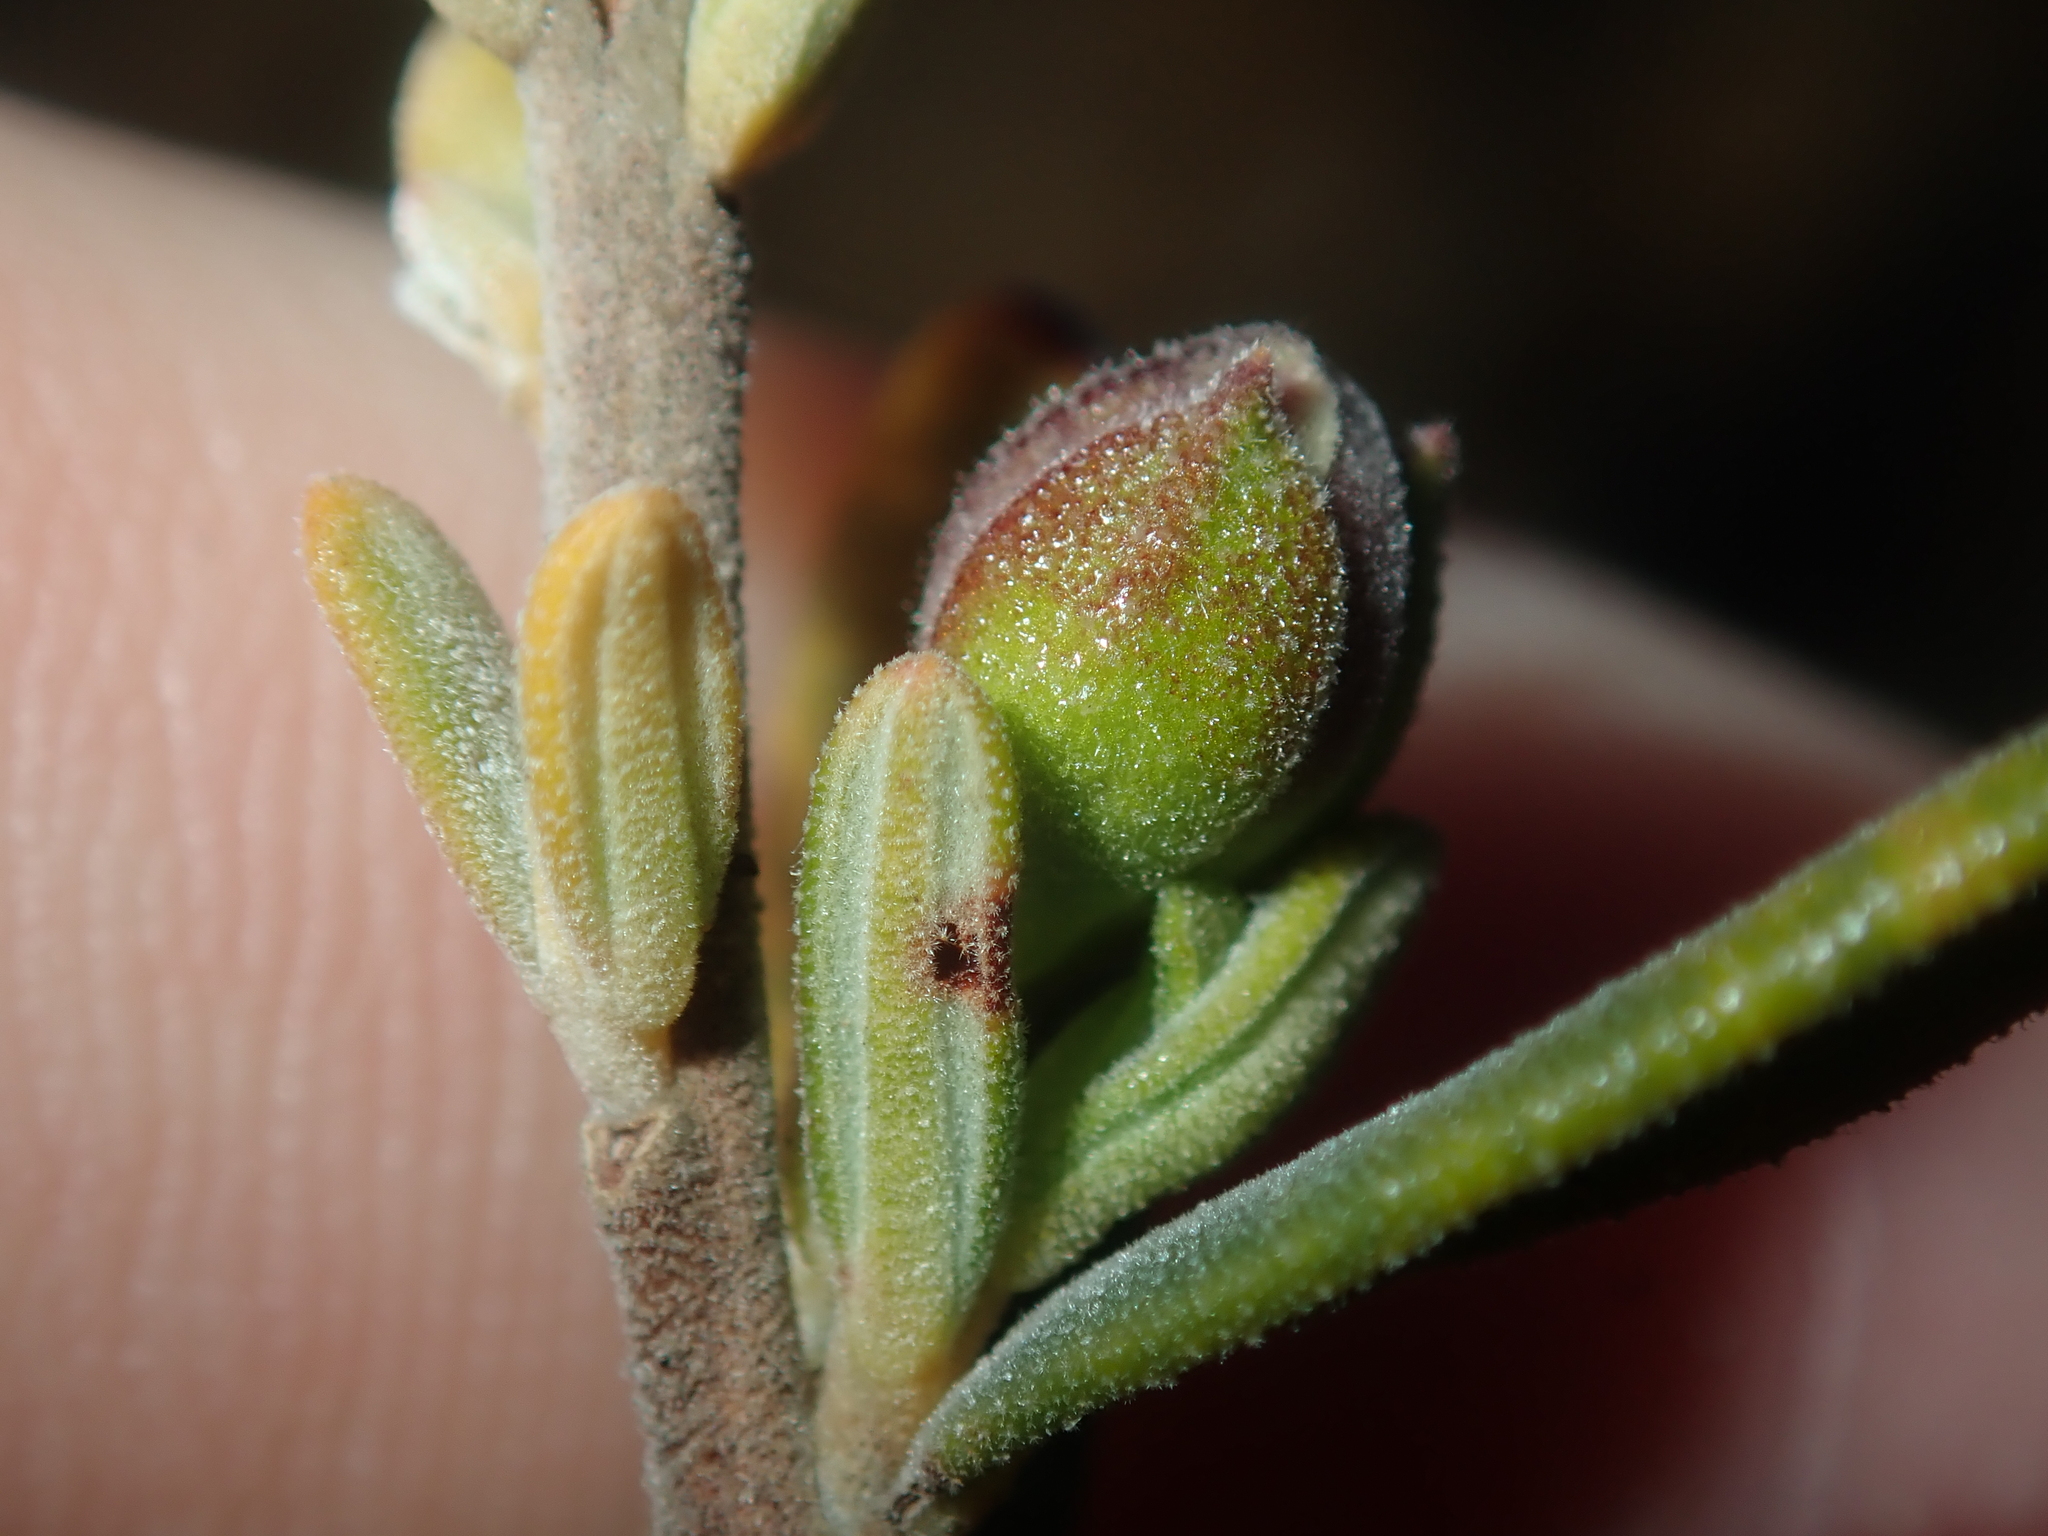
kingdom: Plantae
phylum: Tracheophyta
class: Magnoliopsida
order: Dilleniales
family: Dilleniaceae
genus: Hibbertia
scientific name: Hibbertia hypericoides
